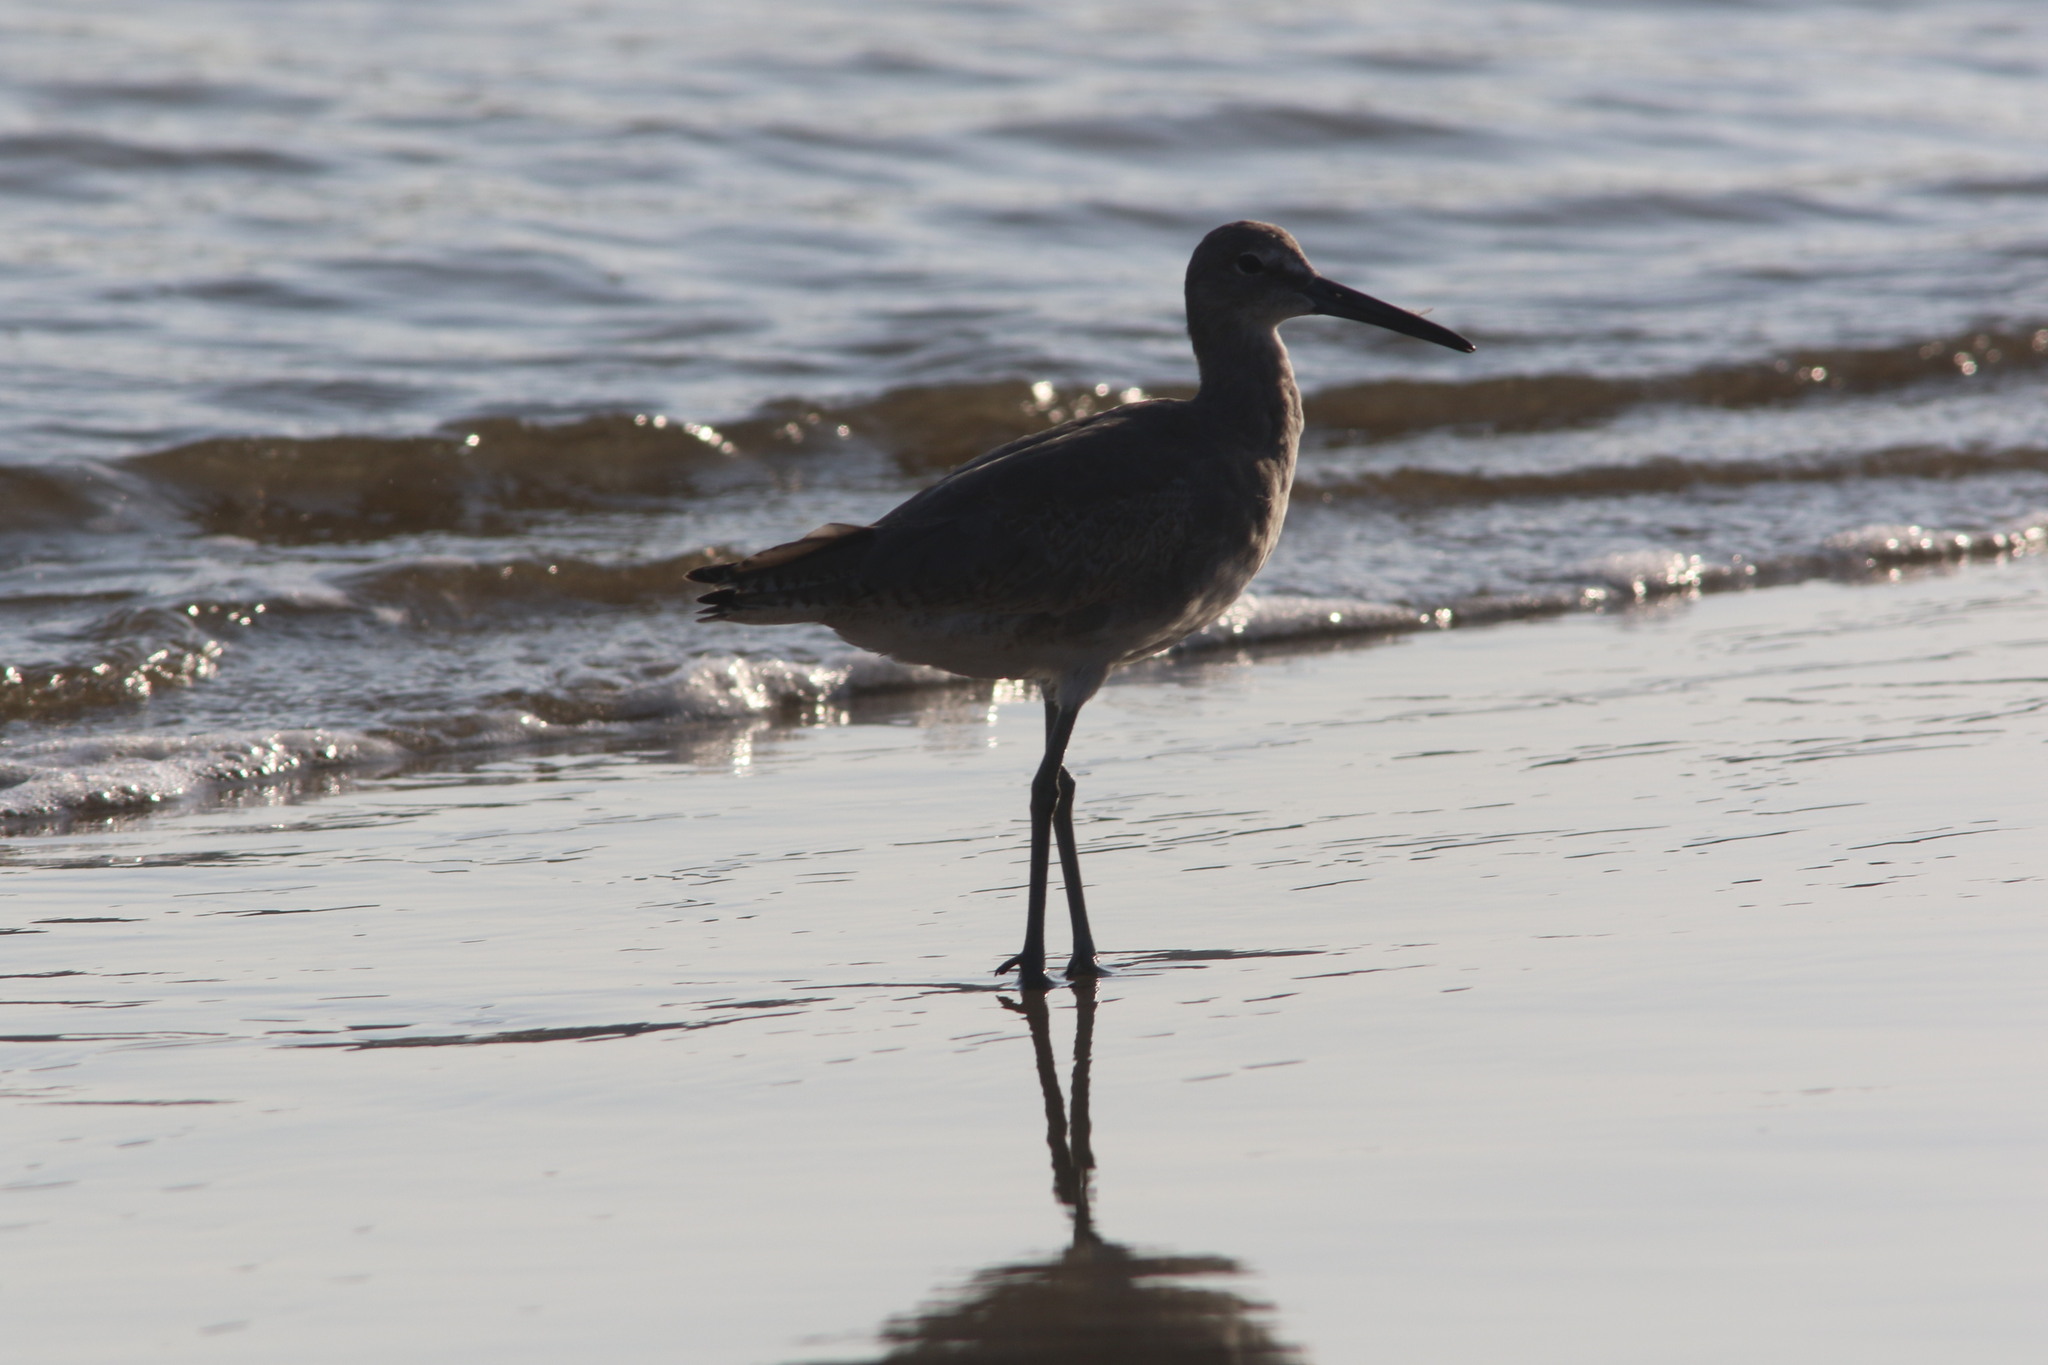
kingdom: Animalia
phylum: Chordata
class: Aves
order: Charadriiformes
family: Scolopacidae
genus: Tringa
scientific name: Tringa semipalmata
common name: Willet
